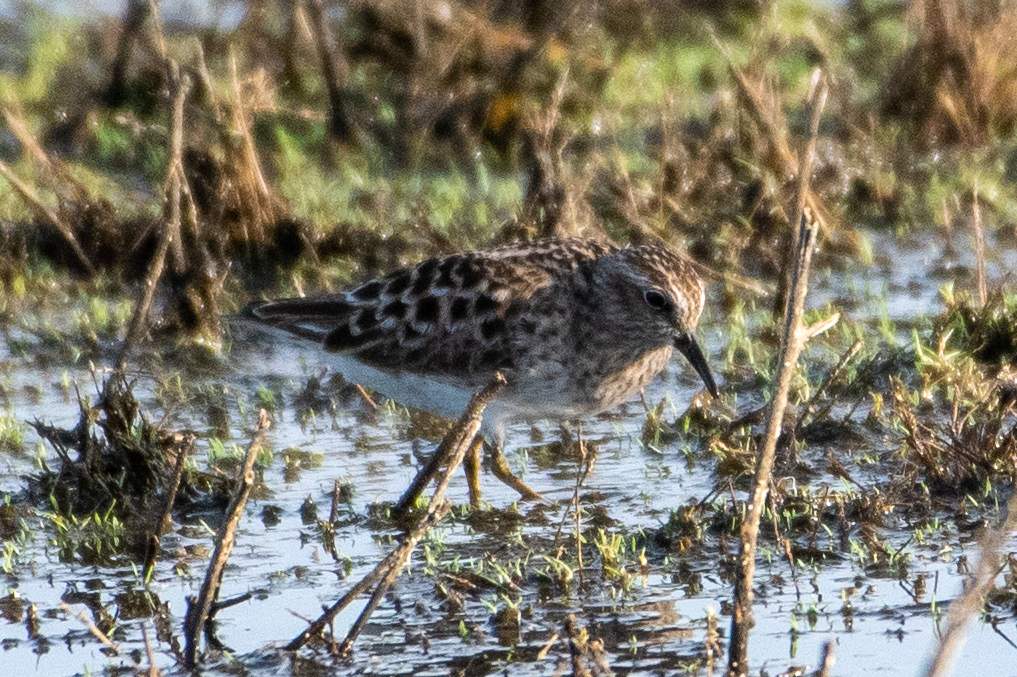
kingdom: Animalia
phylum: Chordata
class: Aves
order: Charadriiformes
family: Scolopacidae
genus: Calidris
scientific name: Calidris minutilla
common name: Least sandpiper
